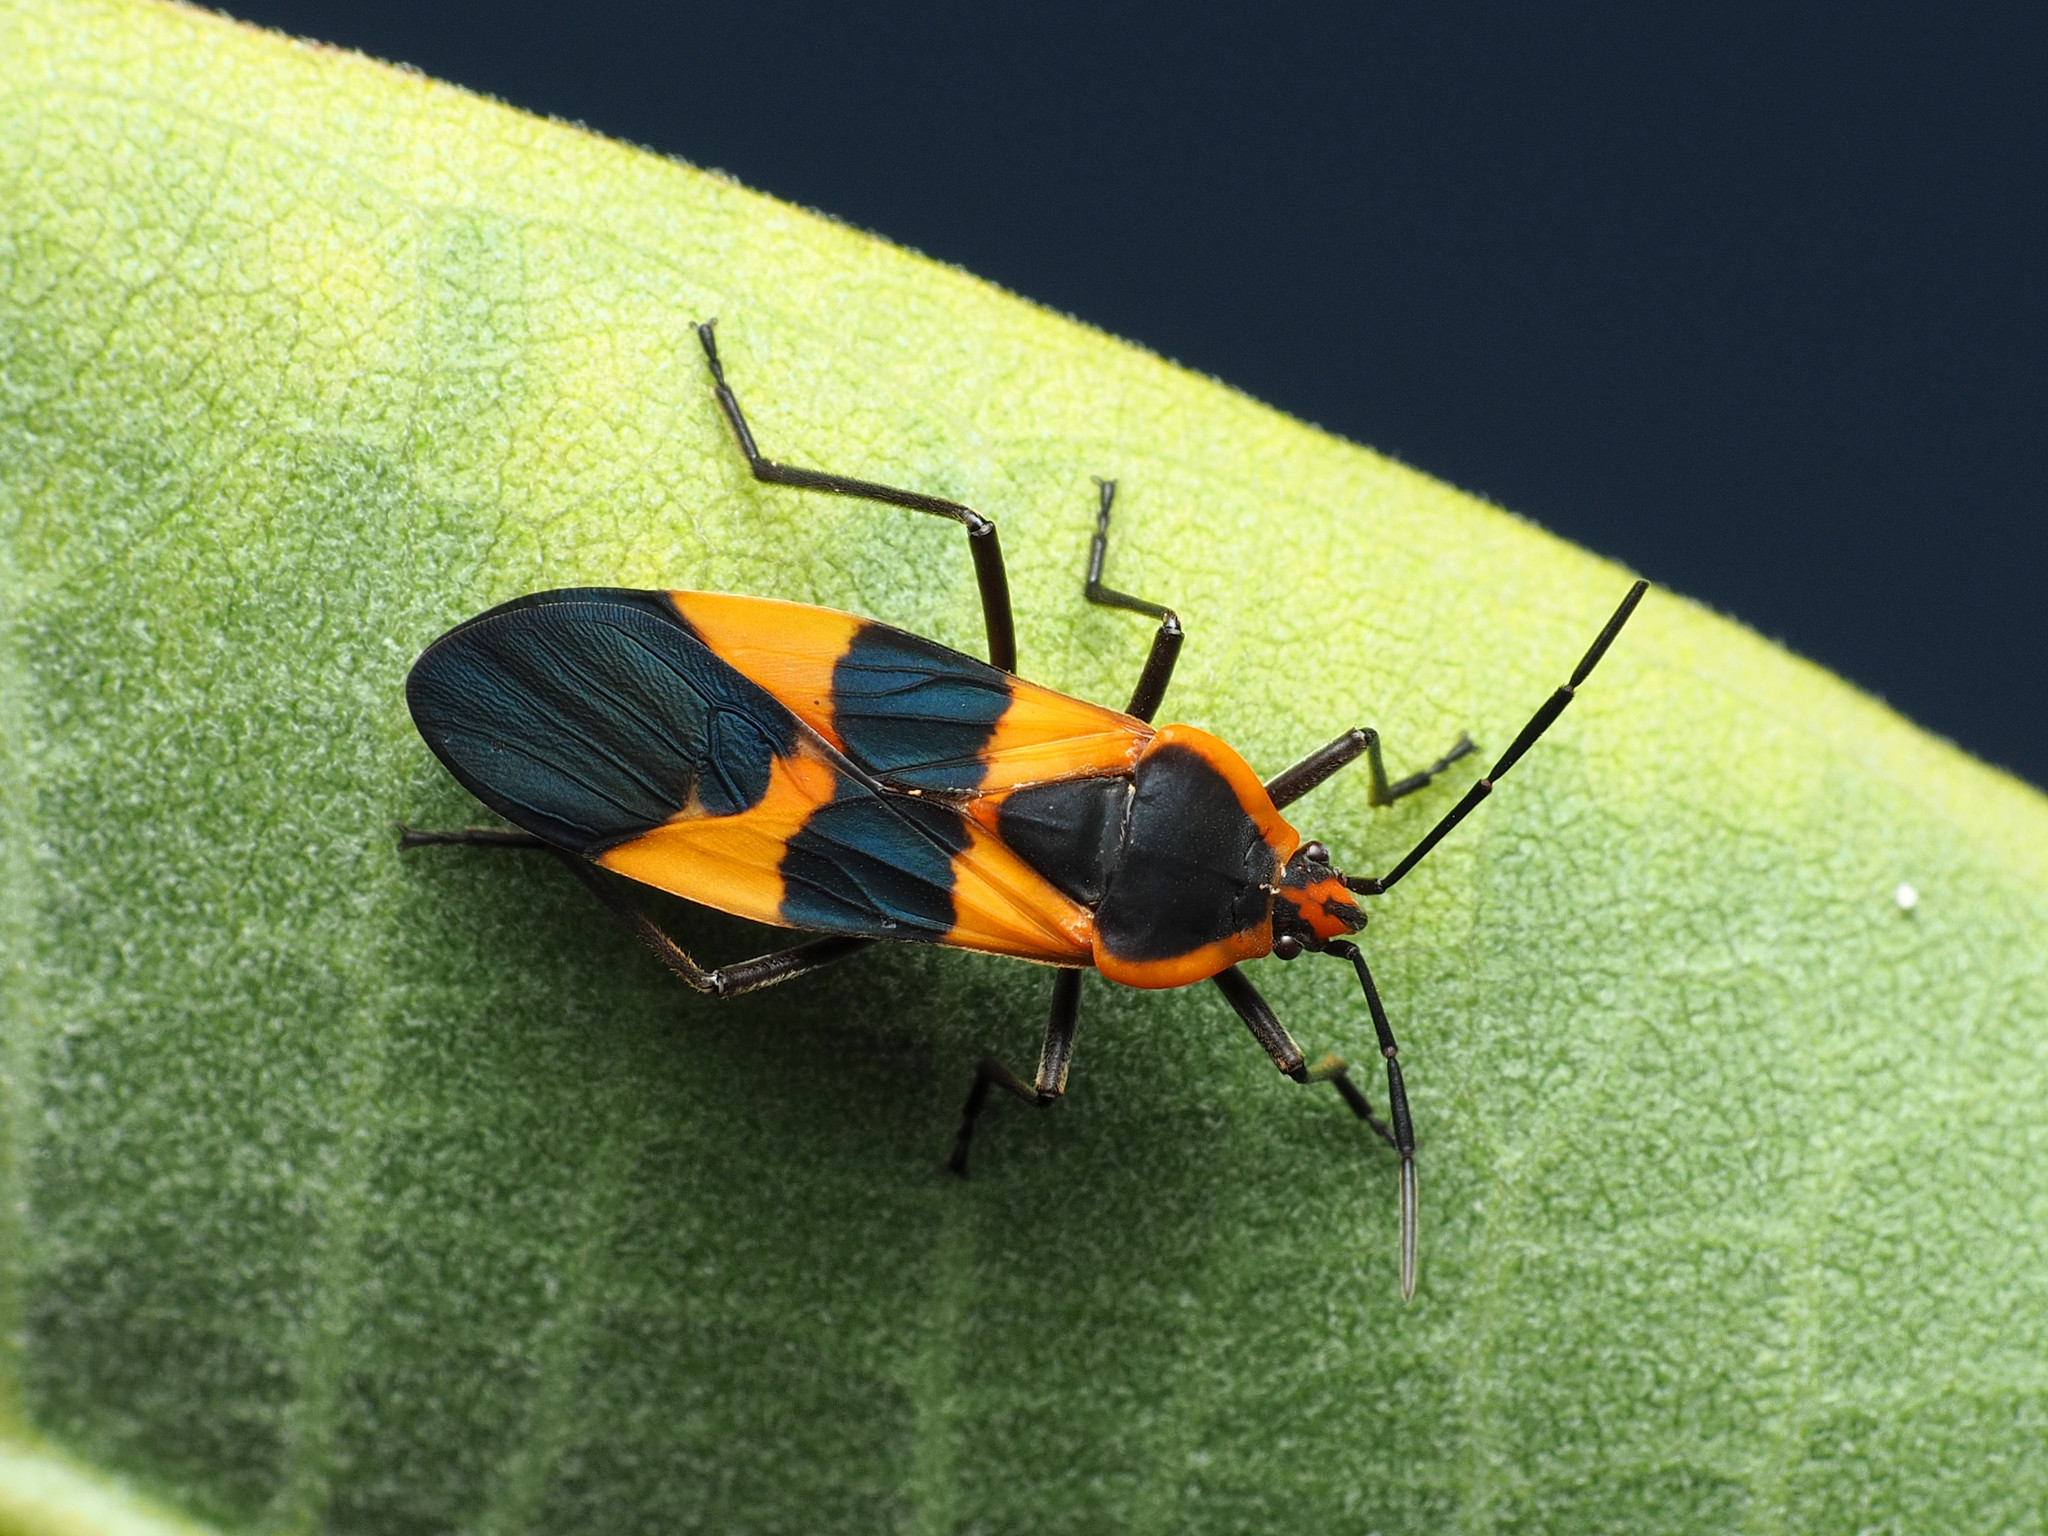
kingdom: Animalia
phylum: Arthropoda
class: Insecta
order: Hemiptera
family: Lygaeidae
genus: Oncopeltus
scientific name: Oncopeltus fasciatus
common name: Large milkweed bug
